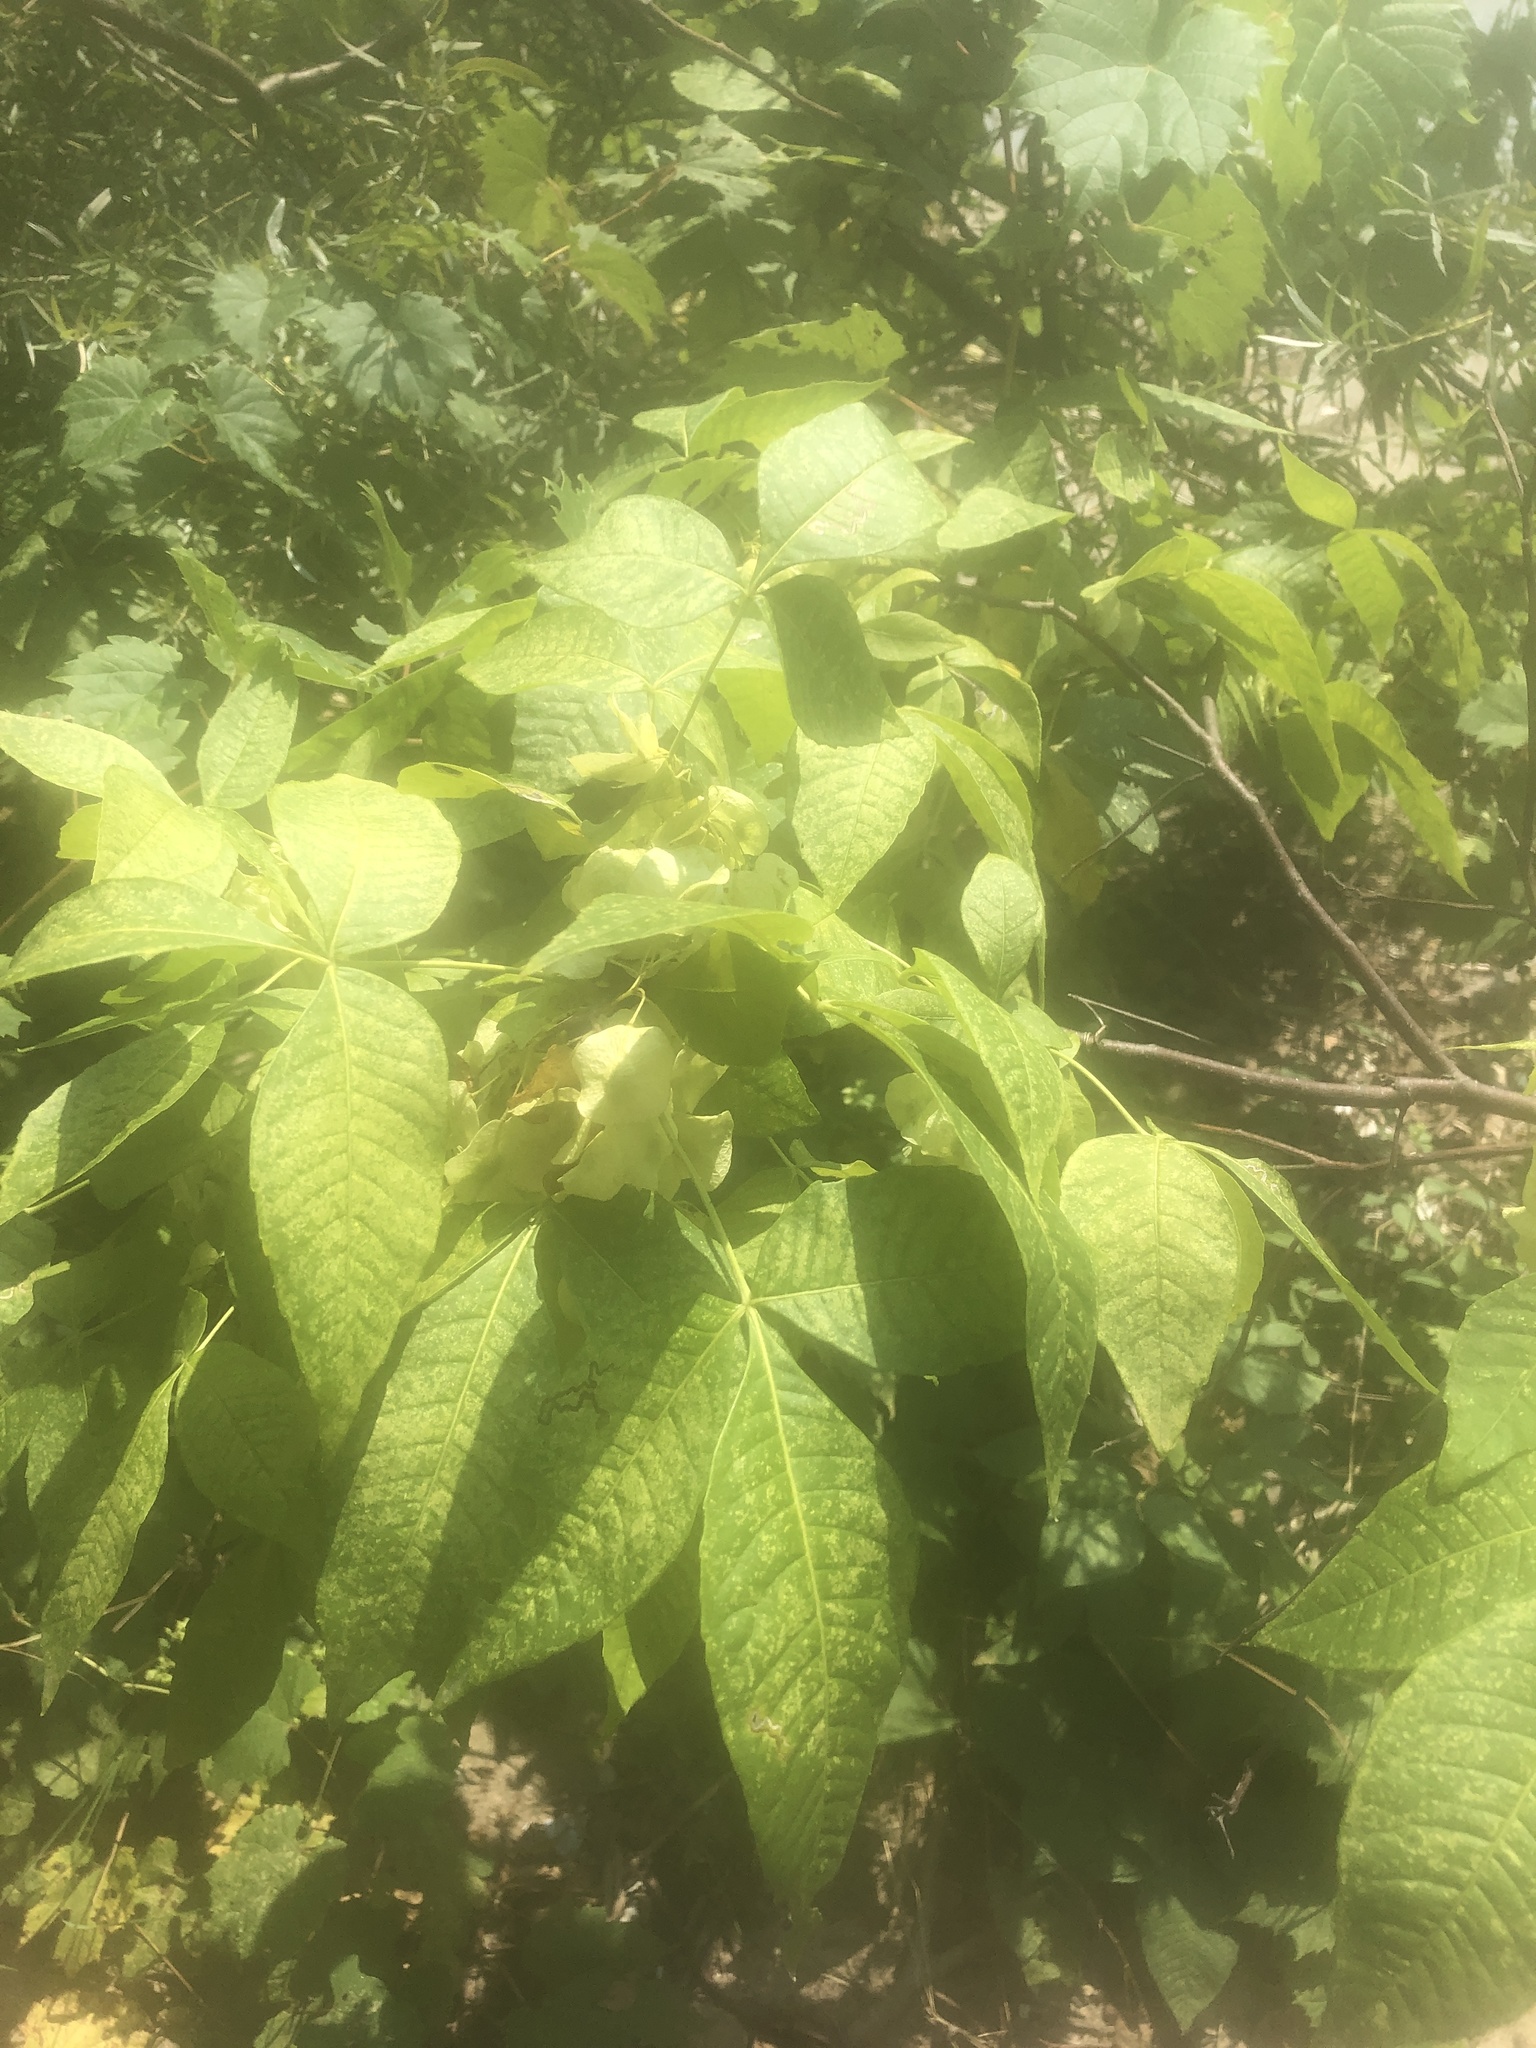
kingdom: Plantae
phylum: Tracheophyta
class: Magnoliopsida
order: Sapindales
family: Rutaceae
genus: Ptelea
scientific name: Ptelea trifoliata
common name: Common hop-tree
